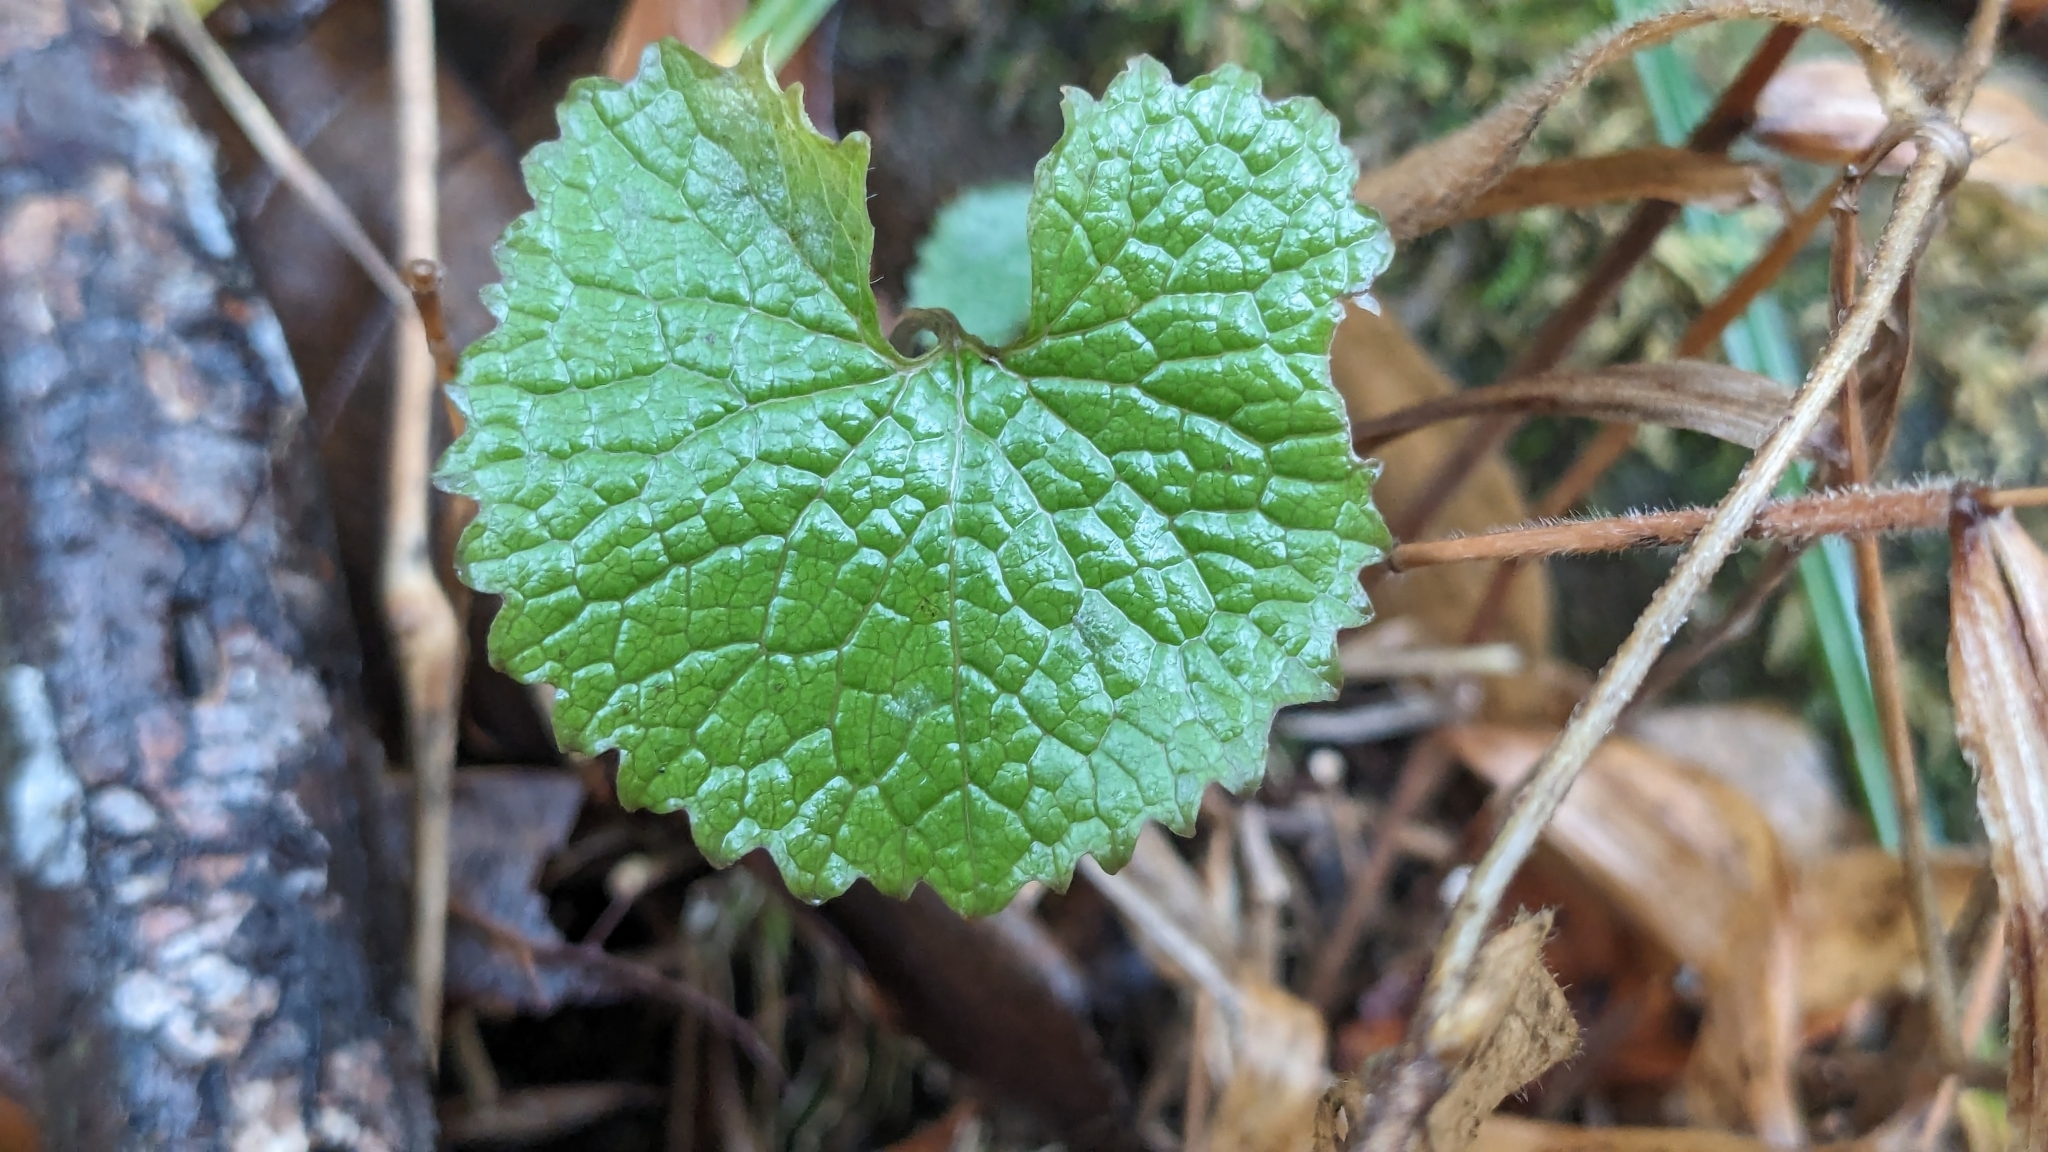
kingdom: Plantae
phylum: Tracheophyta
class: Magnoliopsida
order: Brassicales
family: Brassicaceae
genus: Alliaria
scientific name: Alliaria petiolata
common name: Garlic mustard
